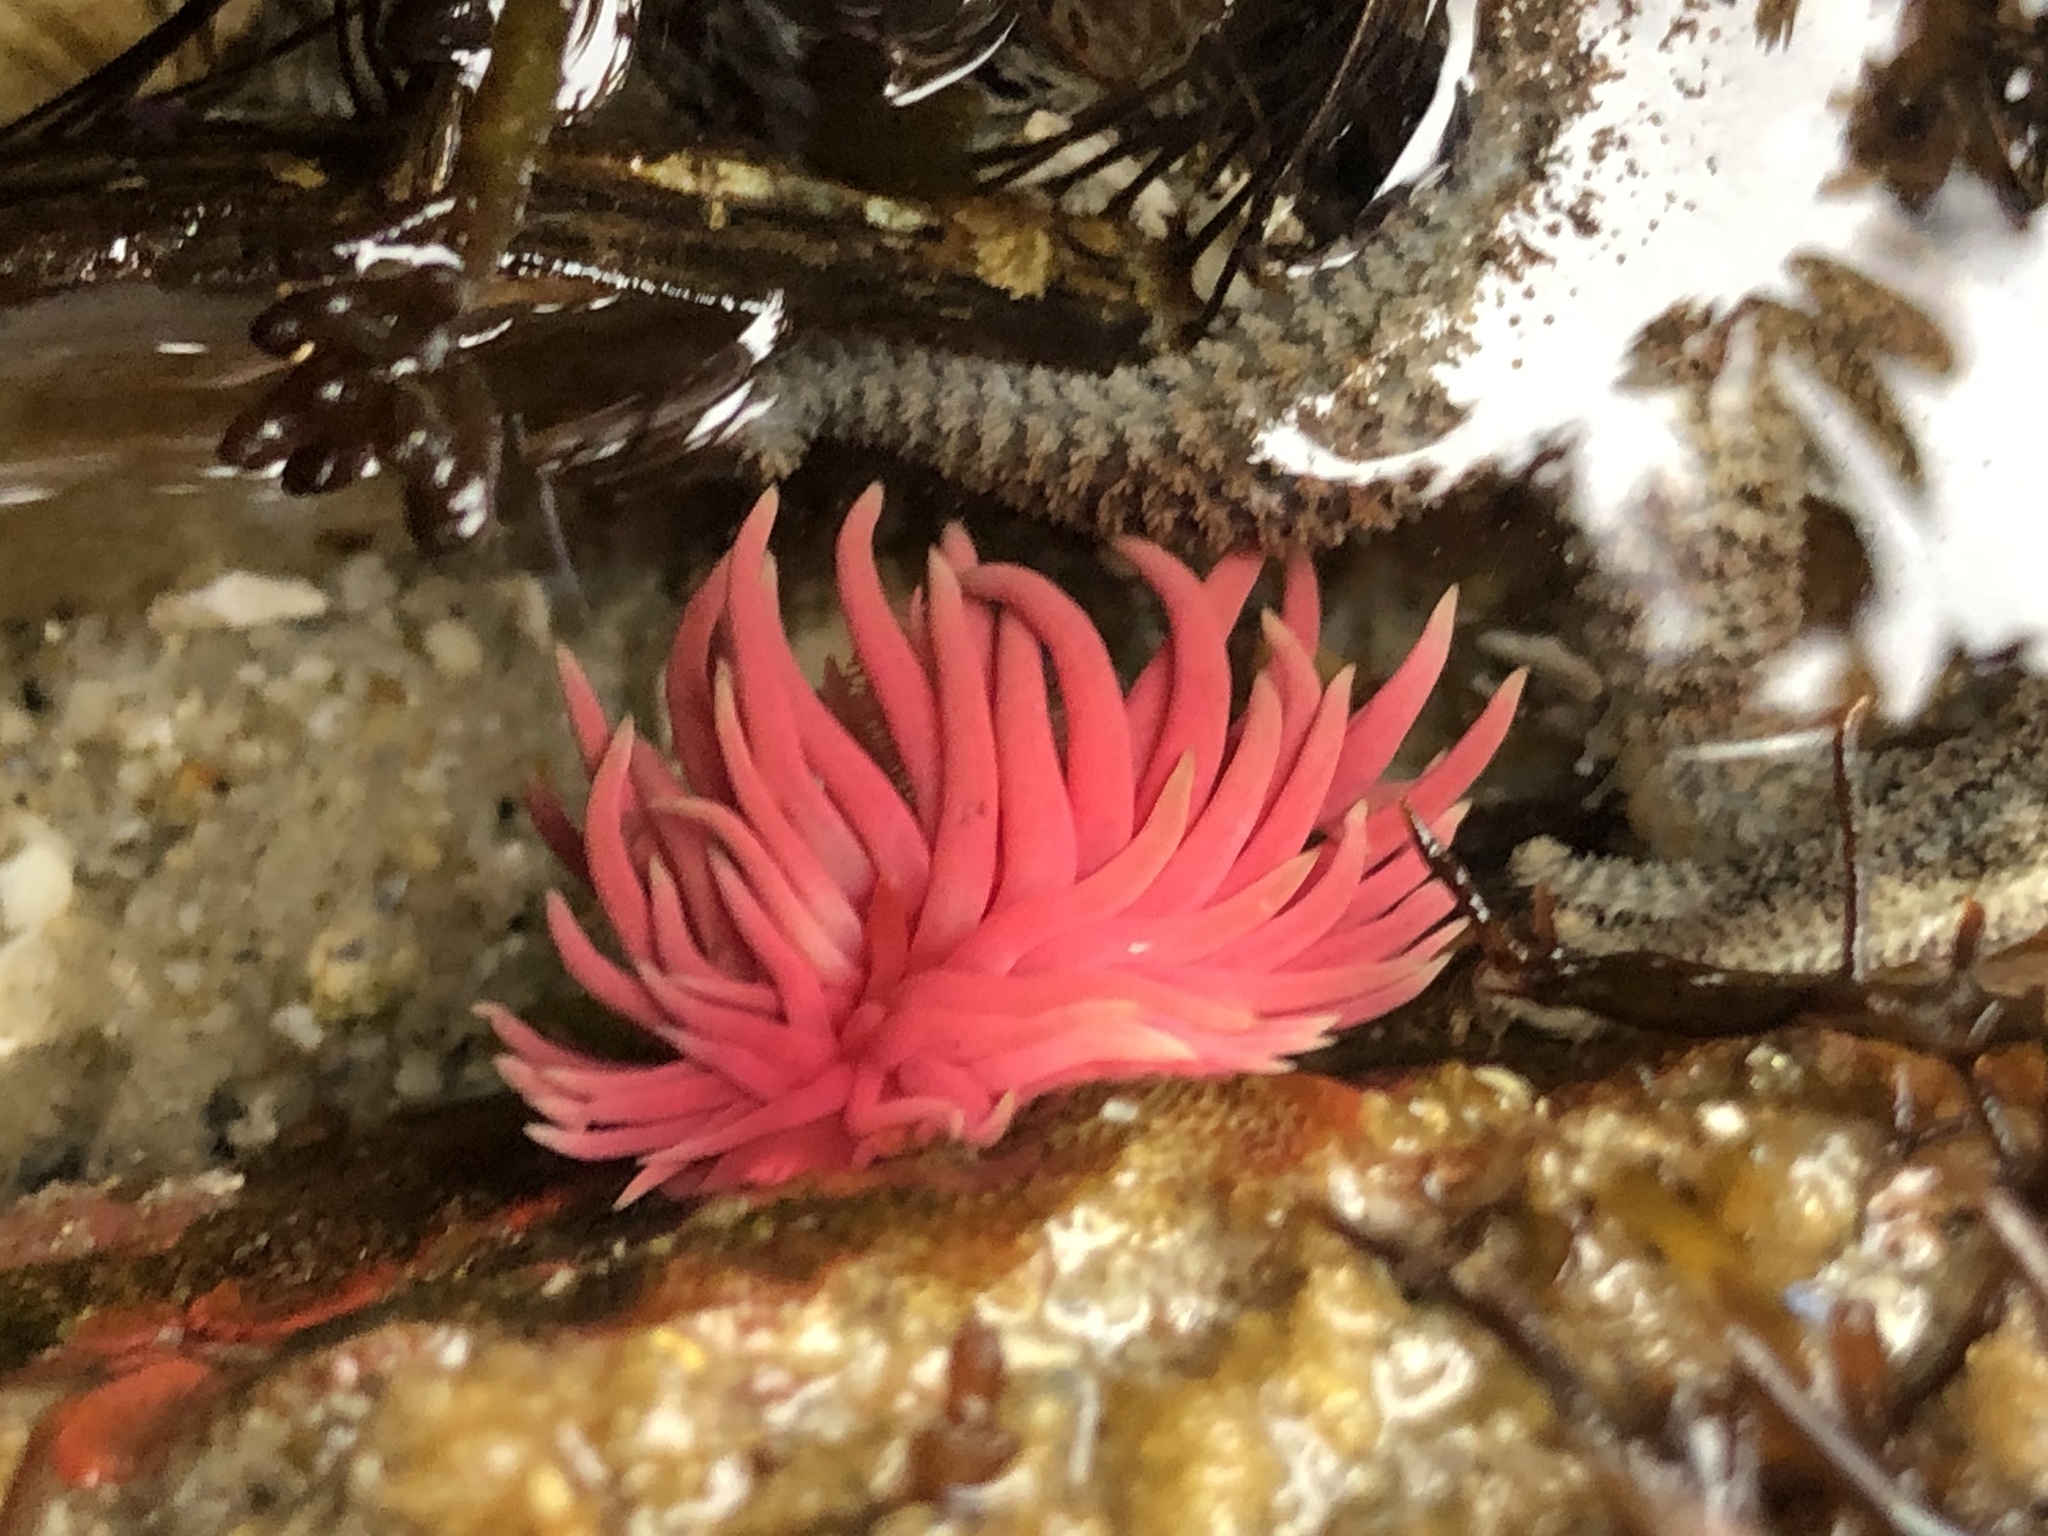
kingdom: Animalia
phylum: Mollusca
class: Gastropoda
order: Nudibranchia
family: Goniodorididae
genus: Okenia
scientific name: Okenia
